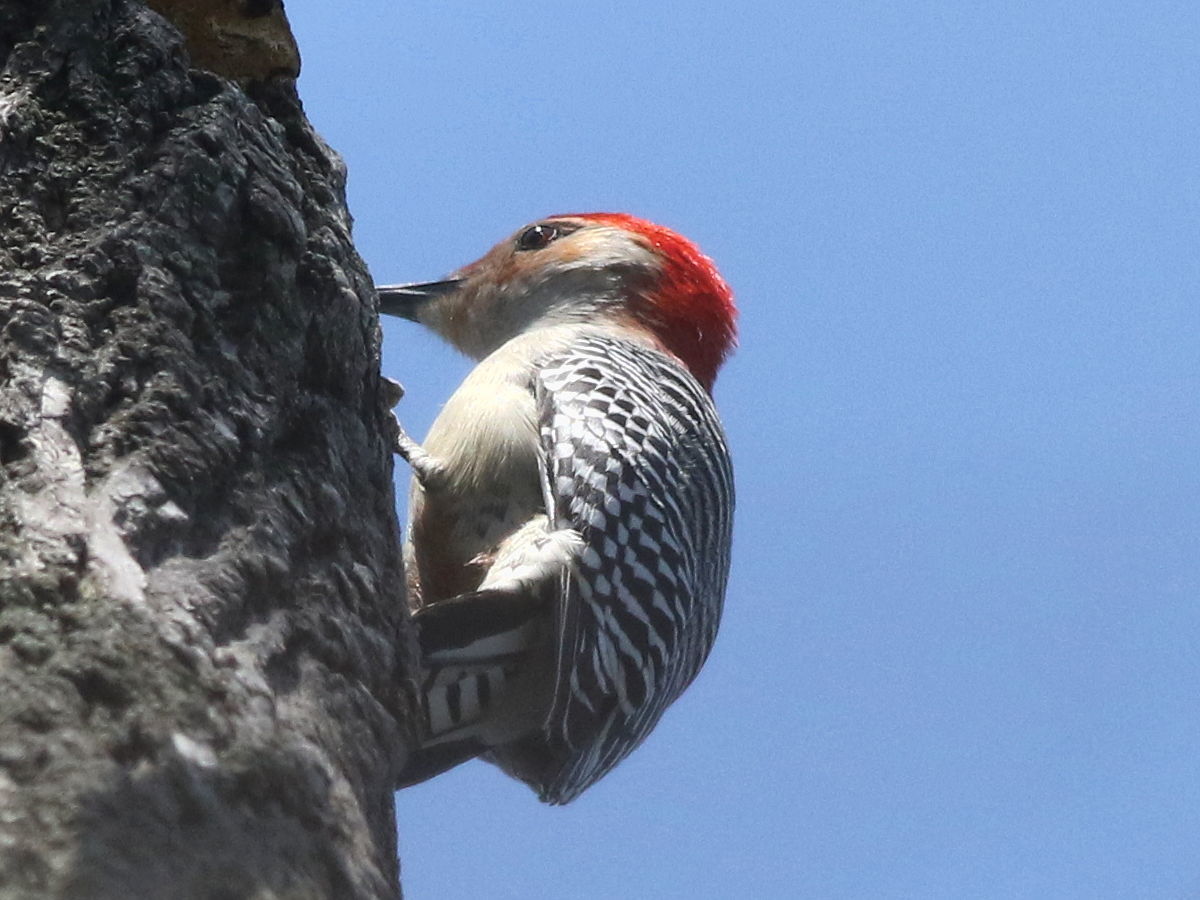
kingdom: Animalia
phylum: Chordata
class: Aves
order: Piciformes
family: Picidae
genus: Melanerpes
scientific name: Melanerpes carolinus
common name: Red-bellied woodpecker
